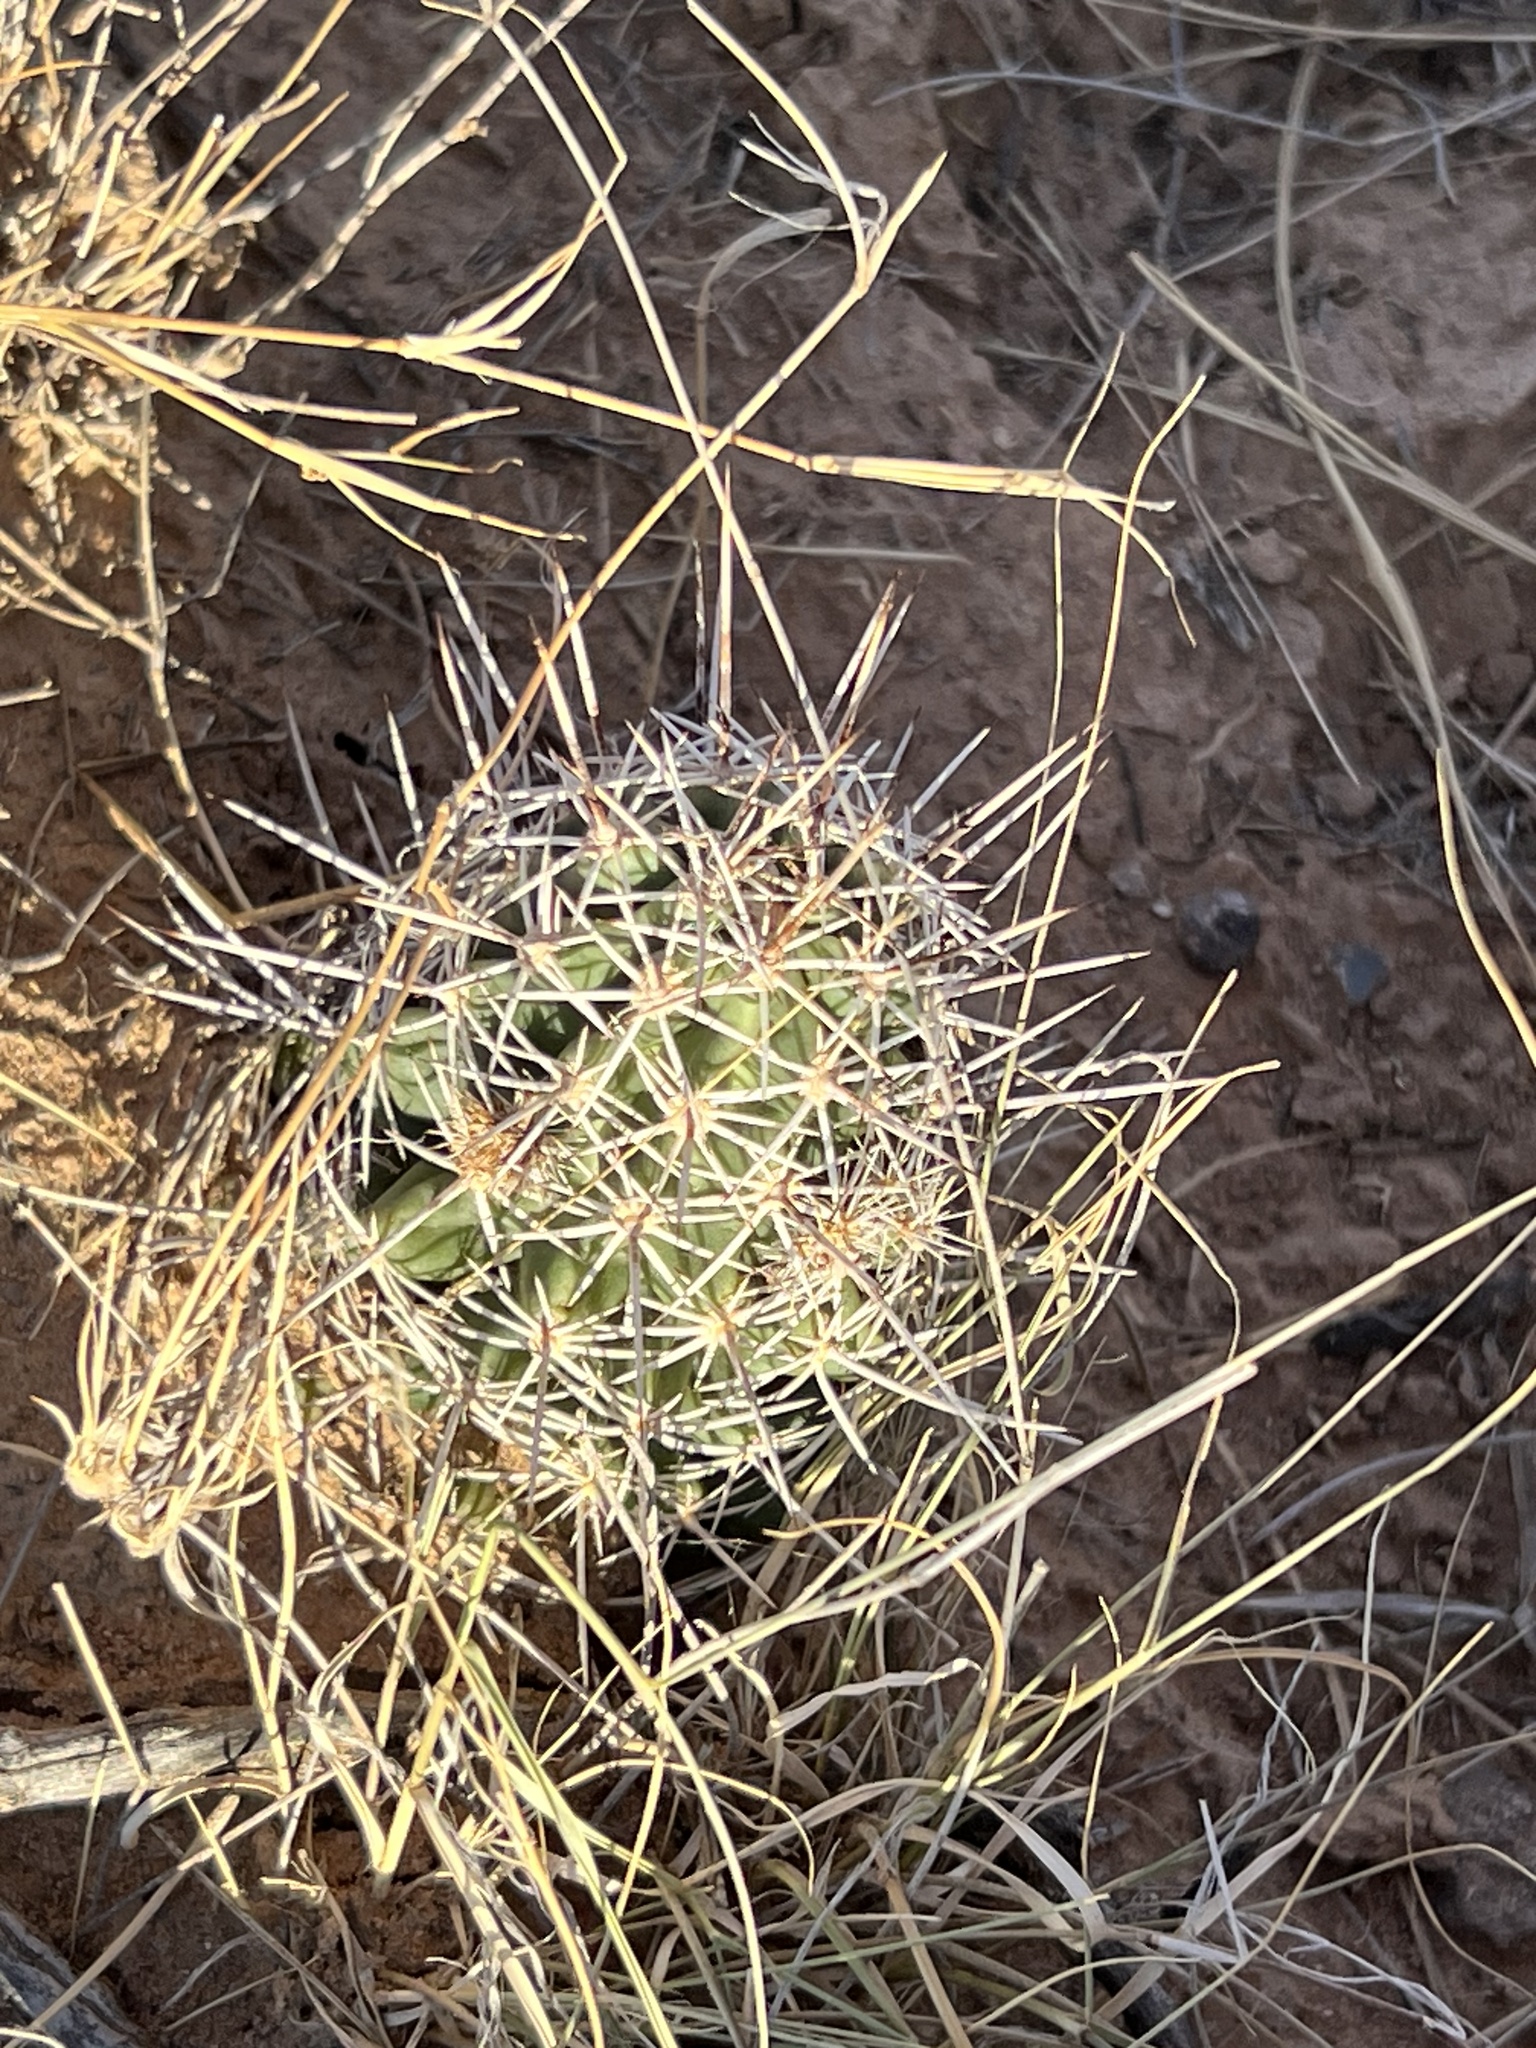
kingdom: Plantae
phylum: Tracheophyta
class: Magnoliopsida
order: Caryophyllales
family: Cactaceae
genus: Echinocereus
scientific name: Echinocereus fendleri
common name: Fendler's hedgehog cactus
